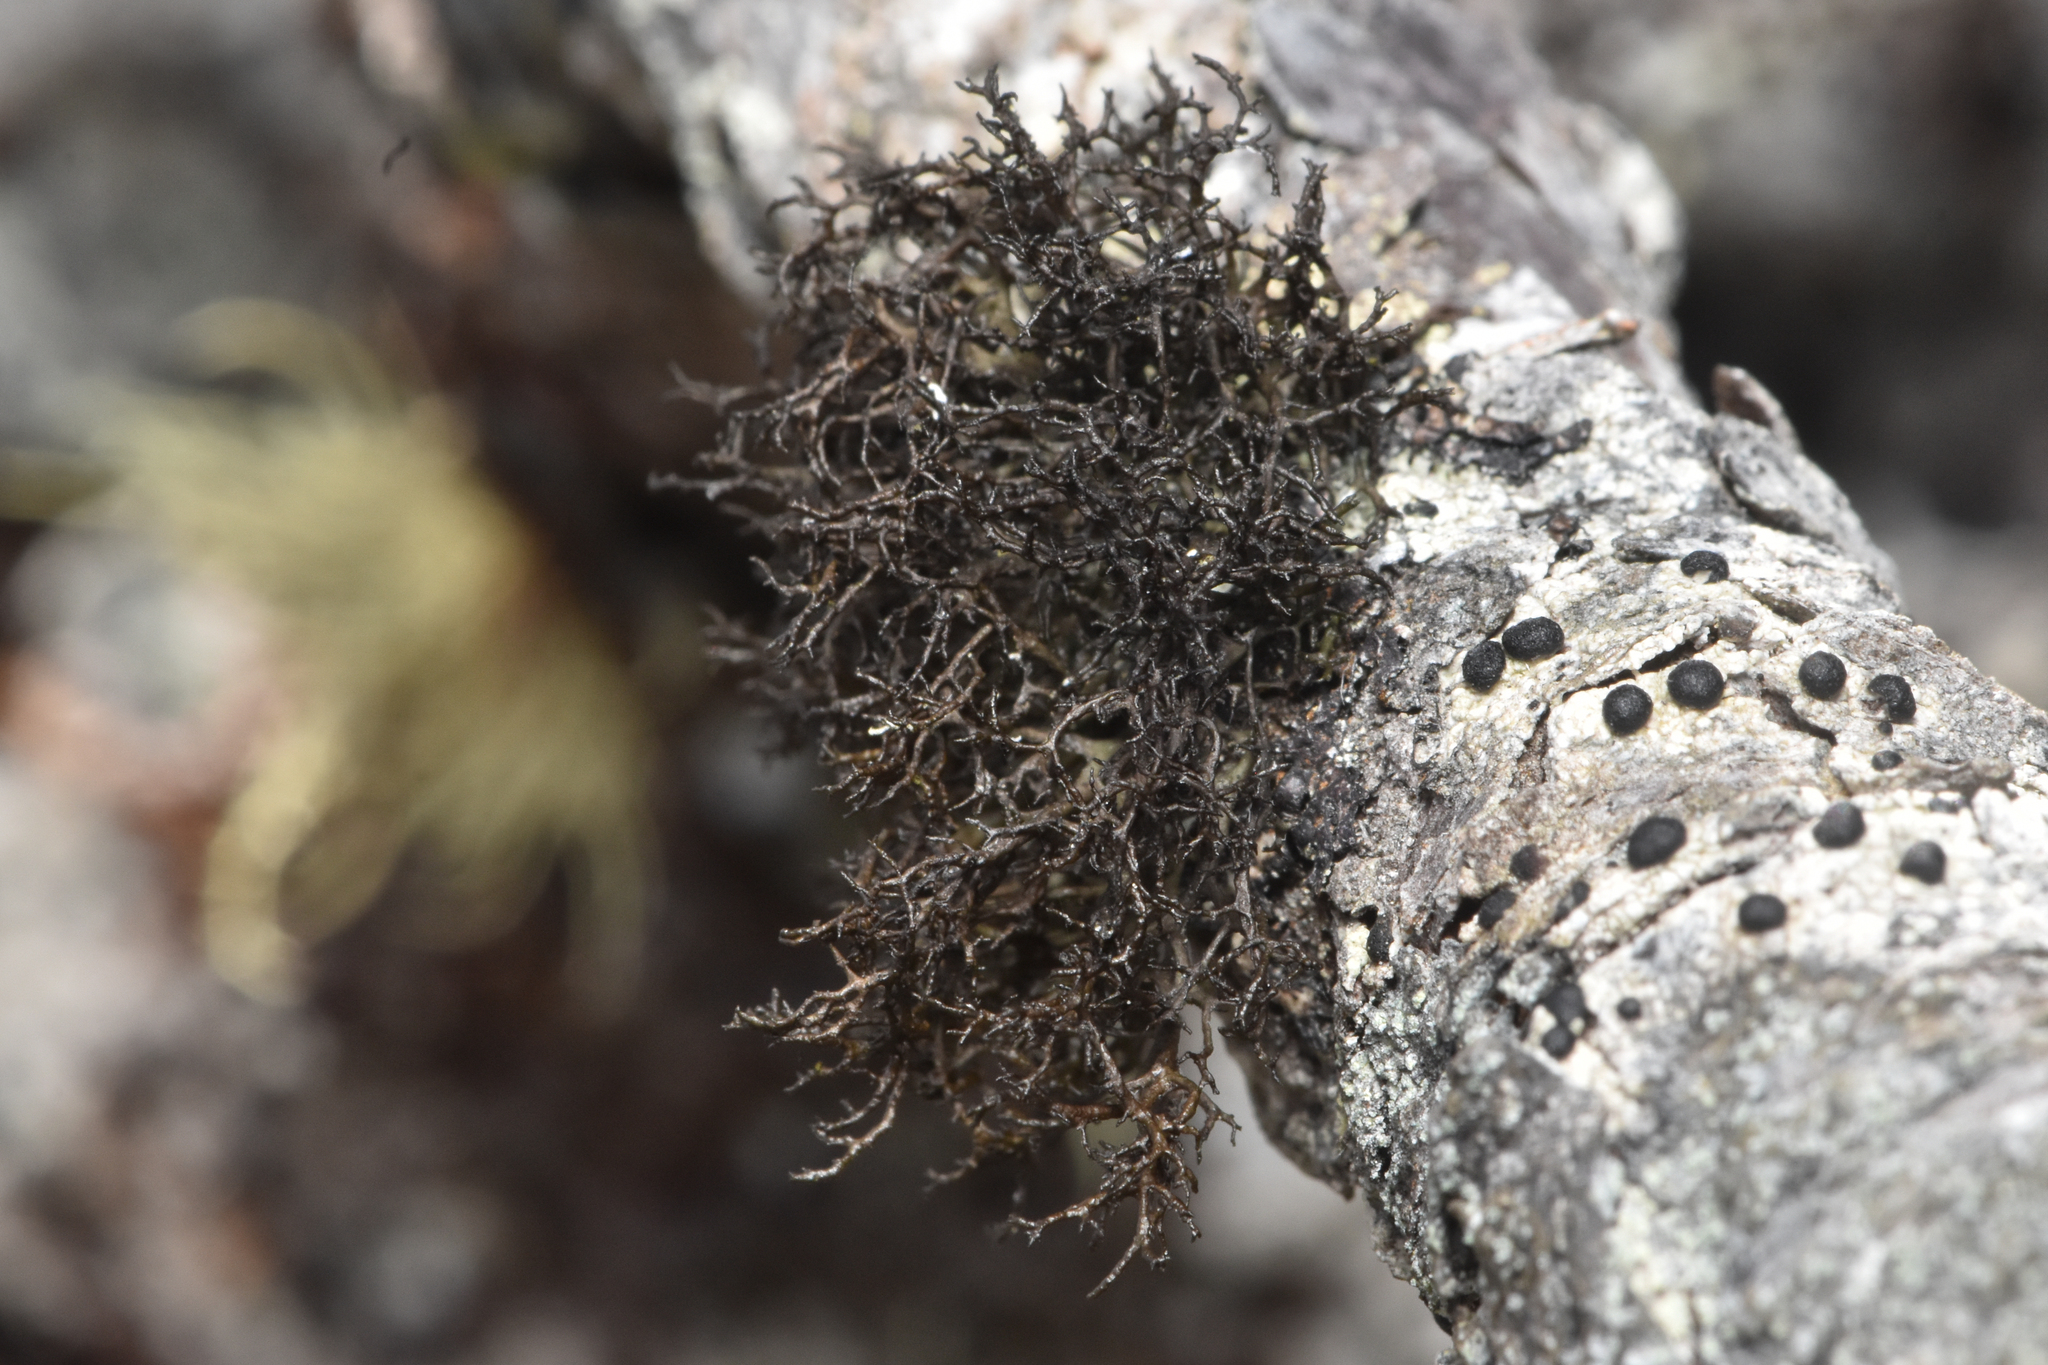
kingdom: Fungi
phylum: Ascomycota
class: Lecanoromycetes
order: Lecanorales
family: Parmeliaceae
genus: Nephromopsis
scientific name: Nephromopsis tuckermanii
